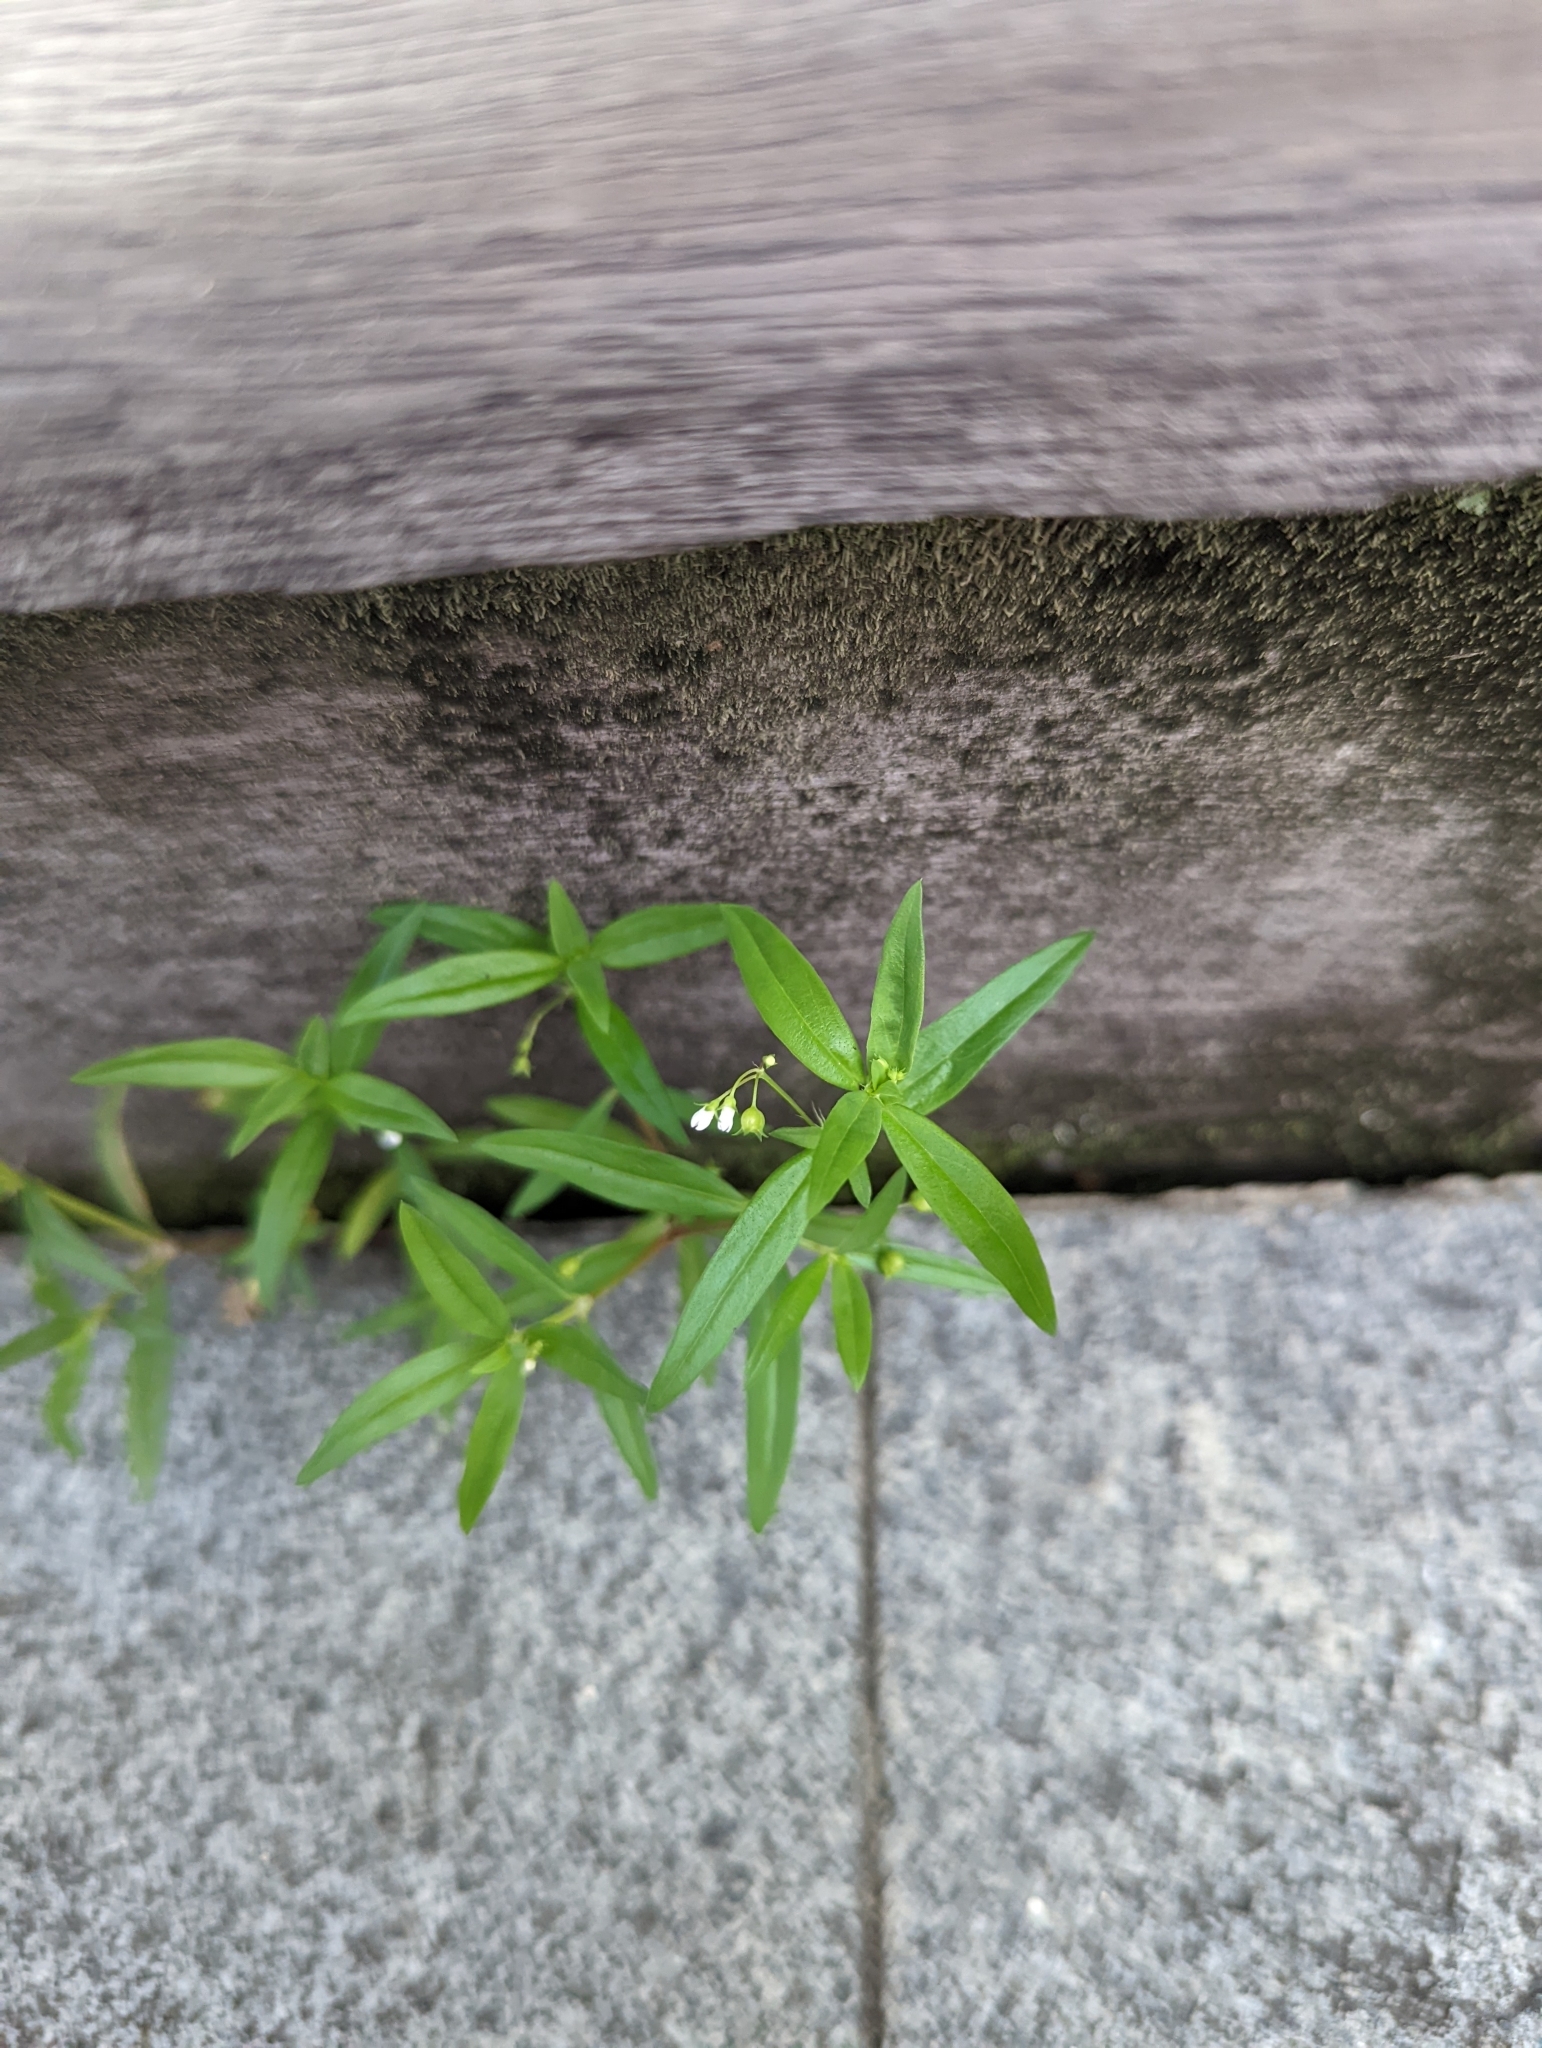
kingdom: Plantae
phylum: Tracheophyta
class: Magnoliopsida
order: Gentianales
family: Rubiaceae
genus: Oldenlandia
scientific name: Oldenlandia corymbosa
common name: Flat-top mille graines
